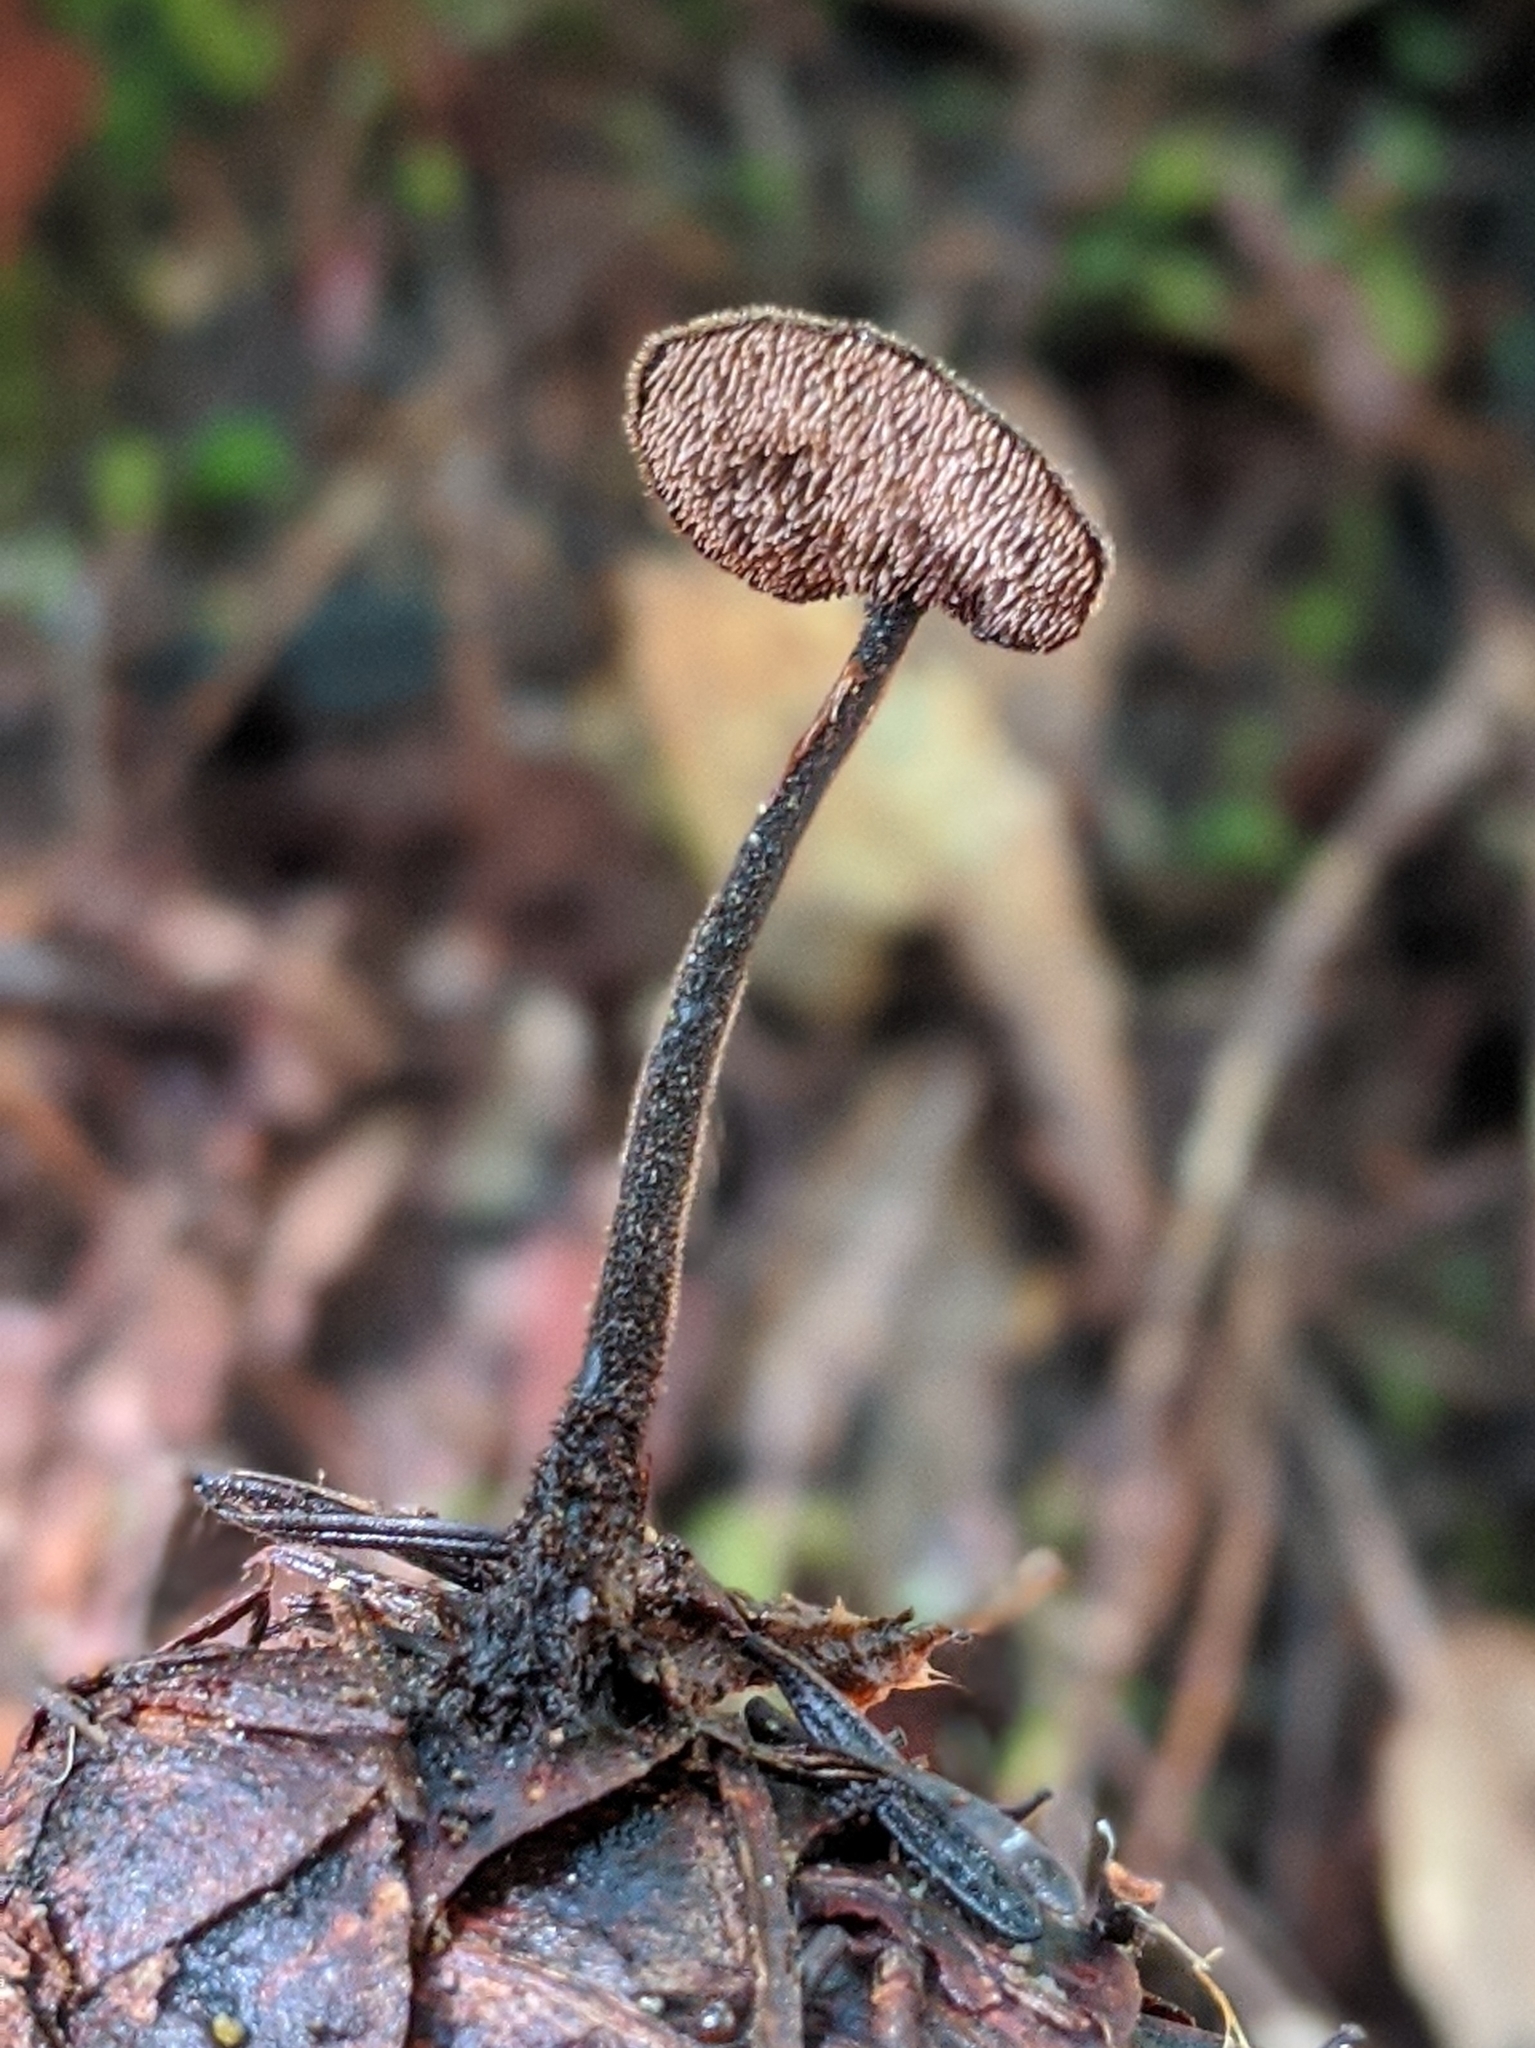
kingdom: Fungi
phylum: Basidiomycota
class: Agaricomycetes
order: Russulales
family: Auriscalpiaceae
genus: Auriscalpium
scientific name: Auriscalpium vulgare
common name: Earpick fungus
